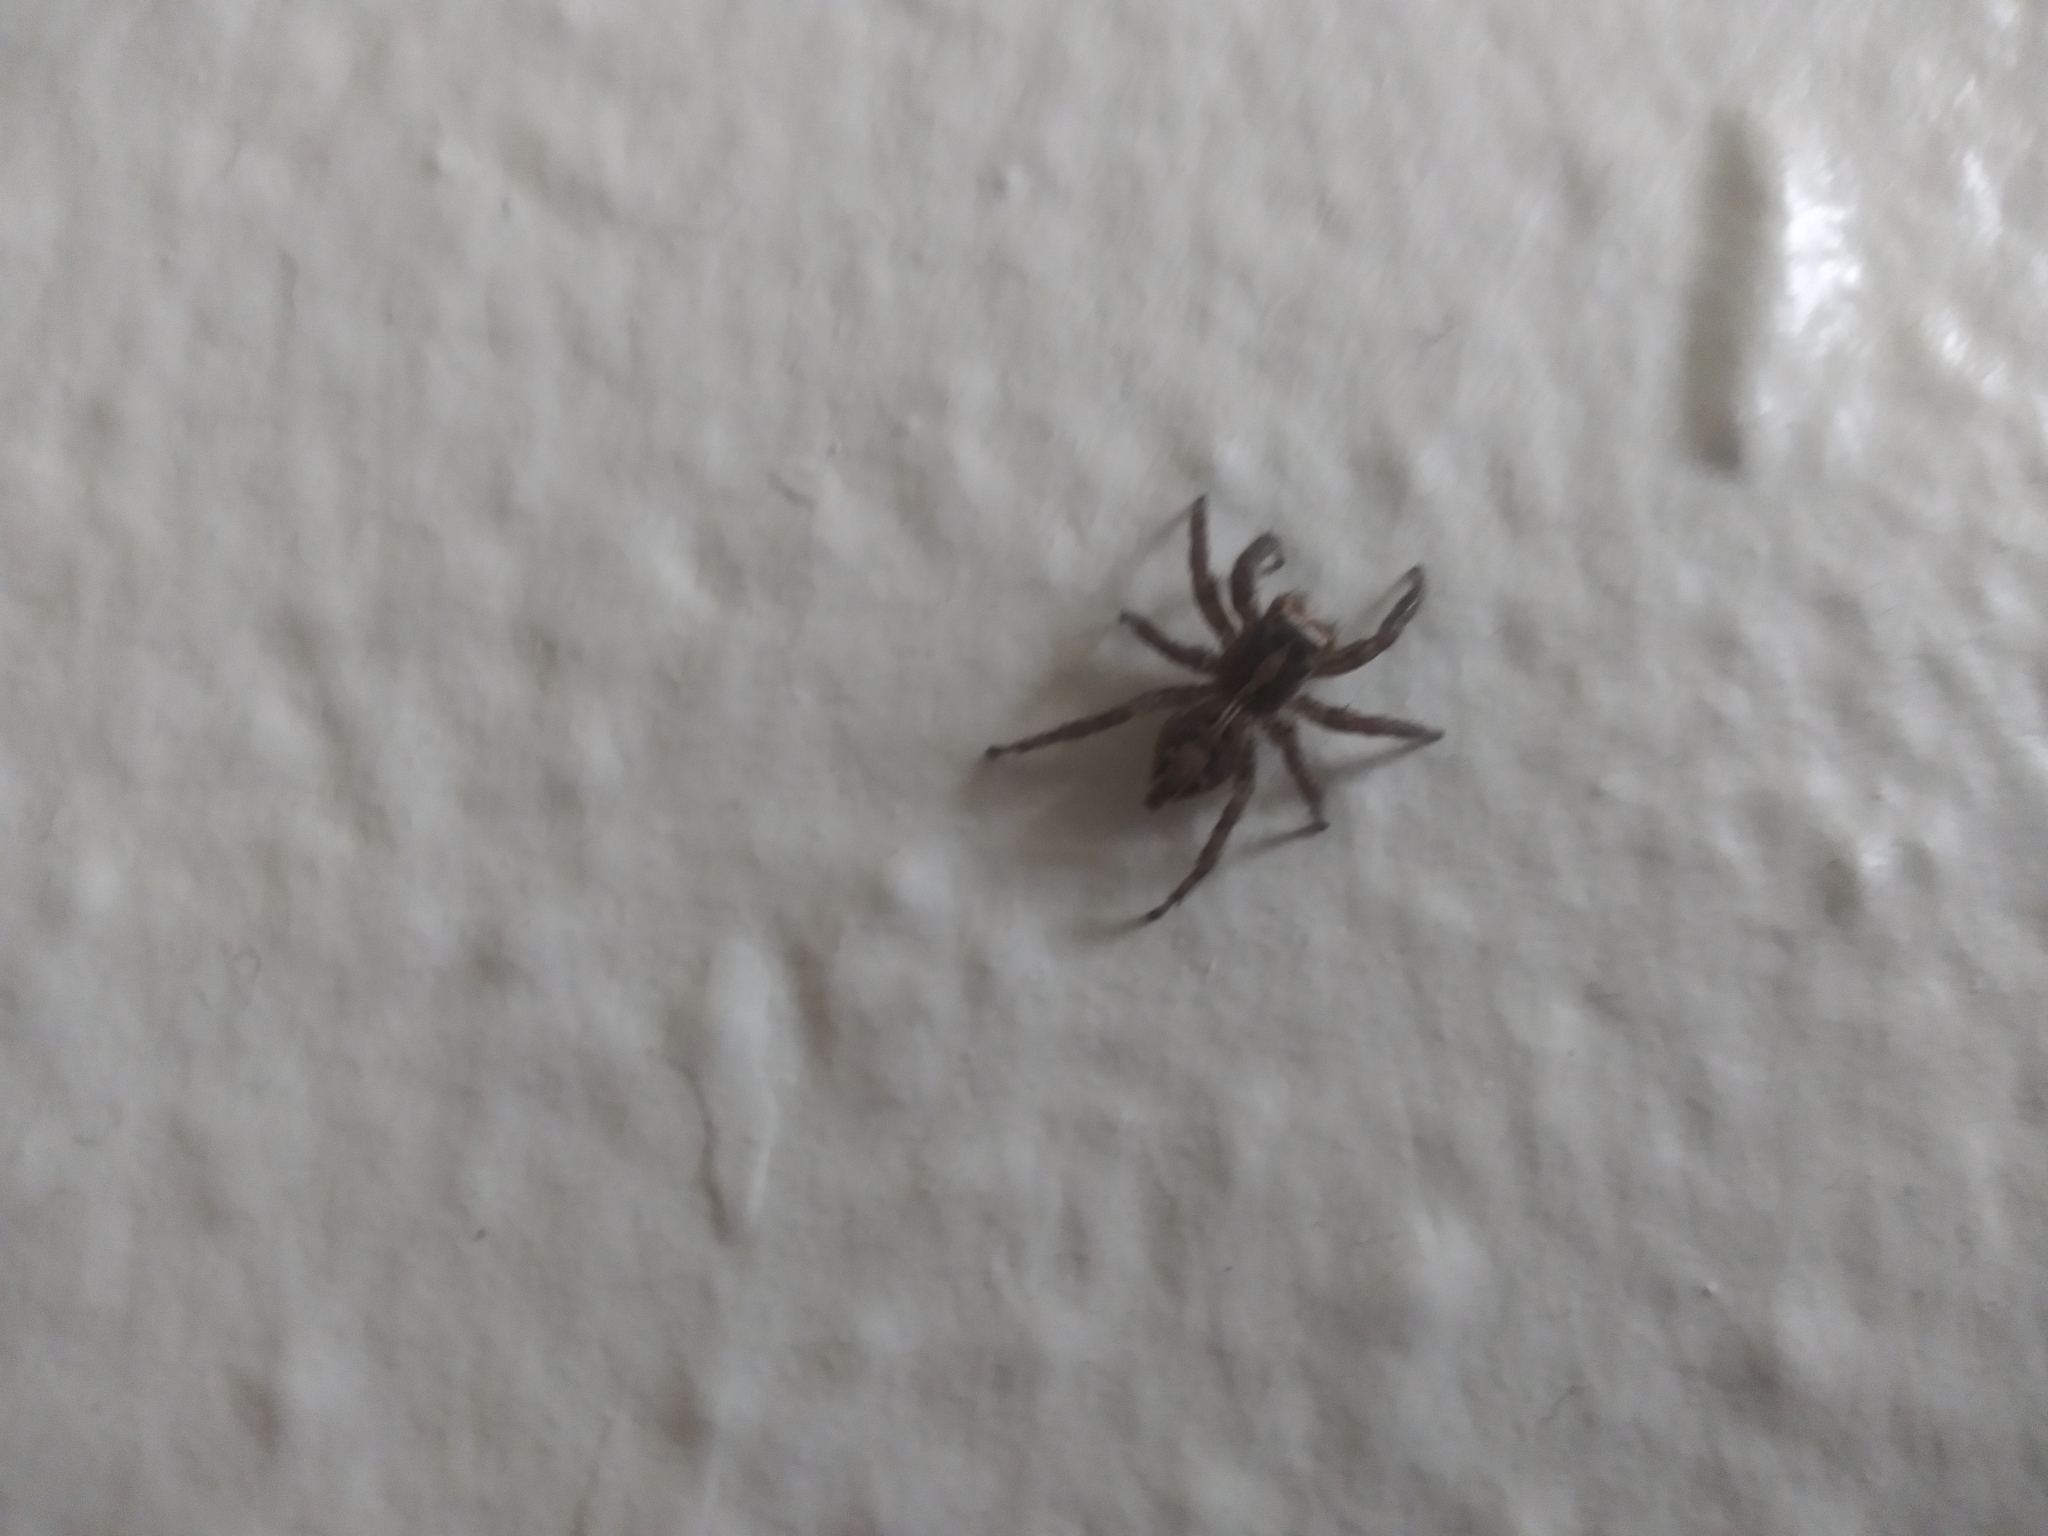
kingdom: Animalia
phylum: Arthropoda
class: Arachnida
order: Araneae
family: Salticidae
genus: Plexippus
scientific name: Plexippus paykulli
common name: Pantropical jumper
